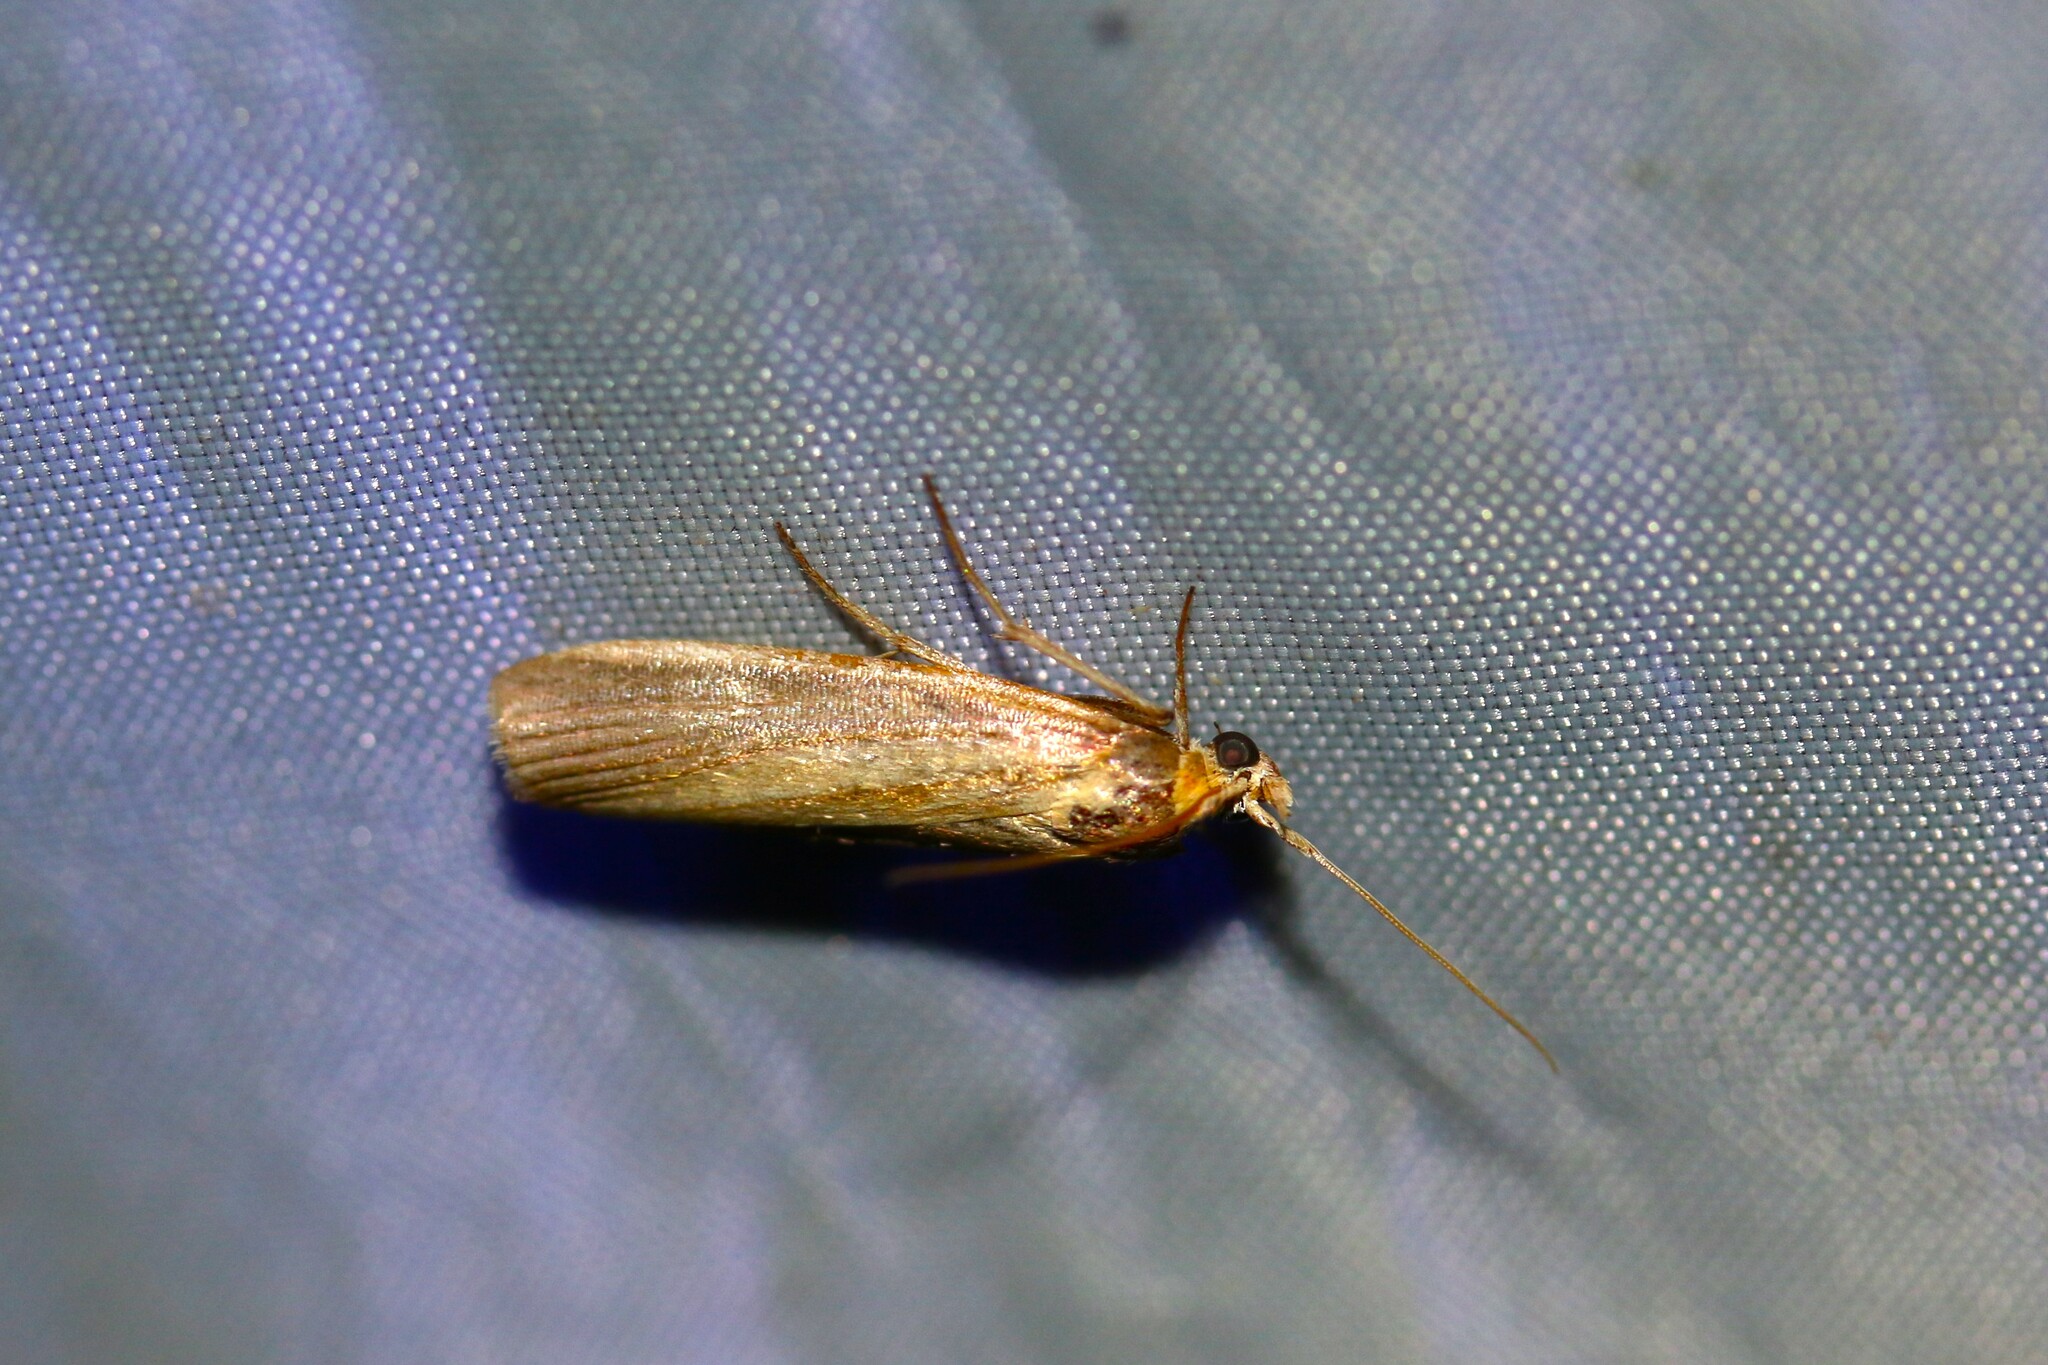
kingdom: Animalia
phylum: Arthropoda
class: Insecta
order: Lepidoptera
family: Pyralidae
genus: Oncocera
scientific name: Oncocera semirubella
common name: Rosy-striped knot-horn
